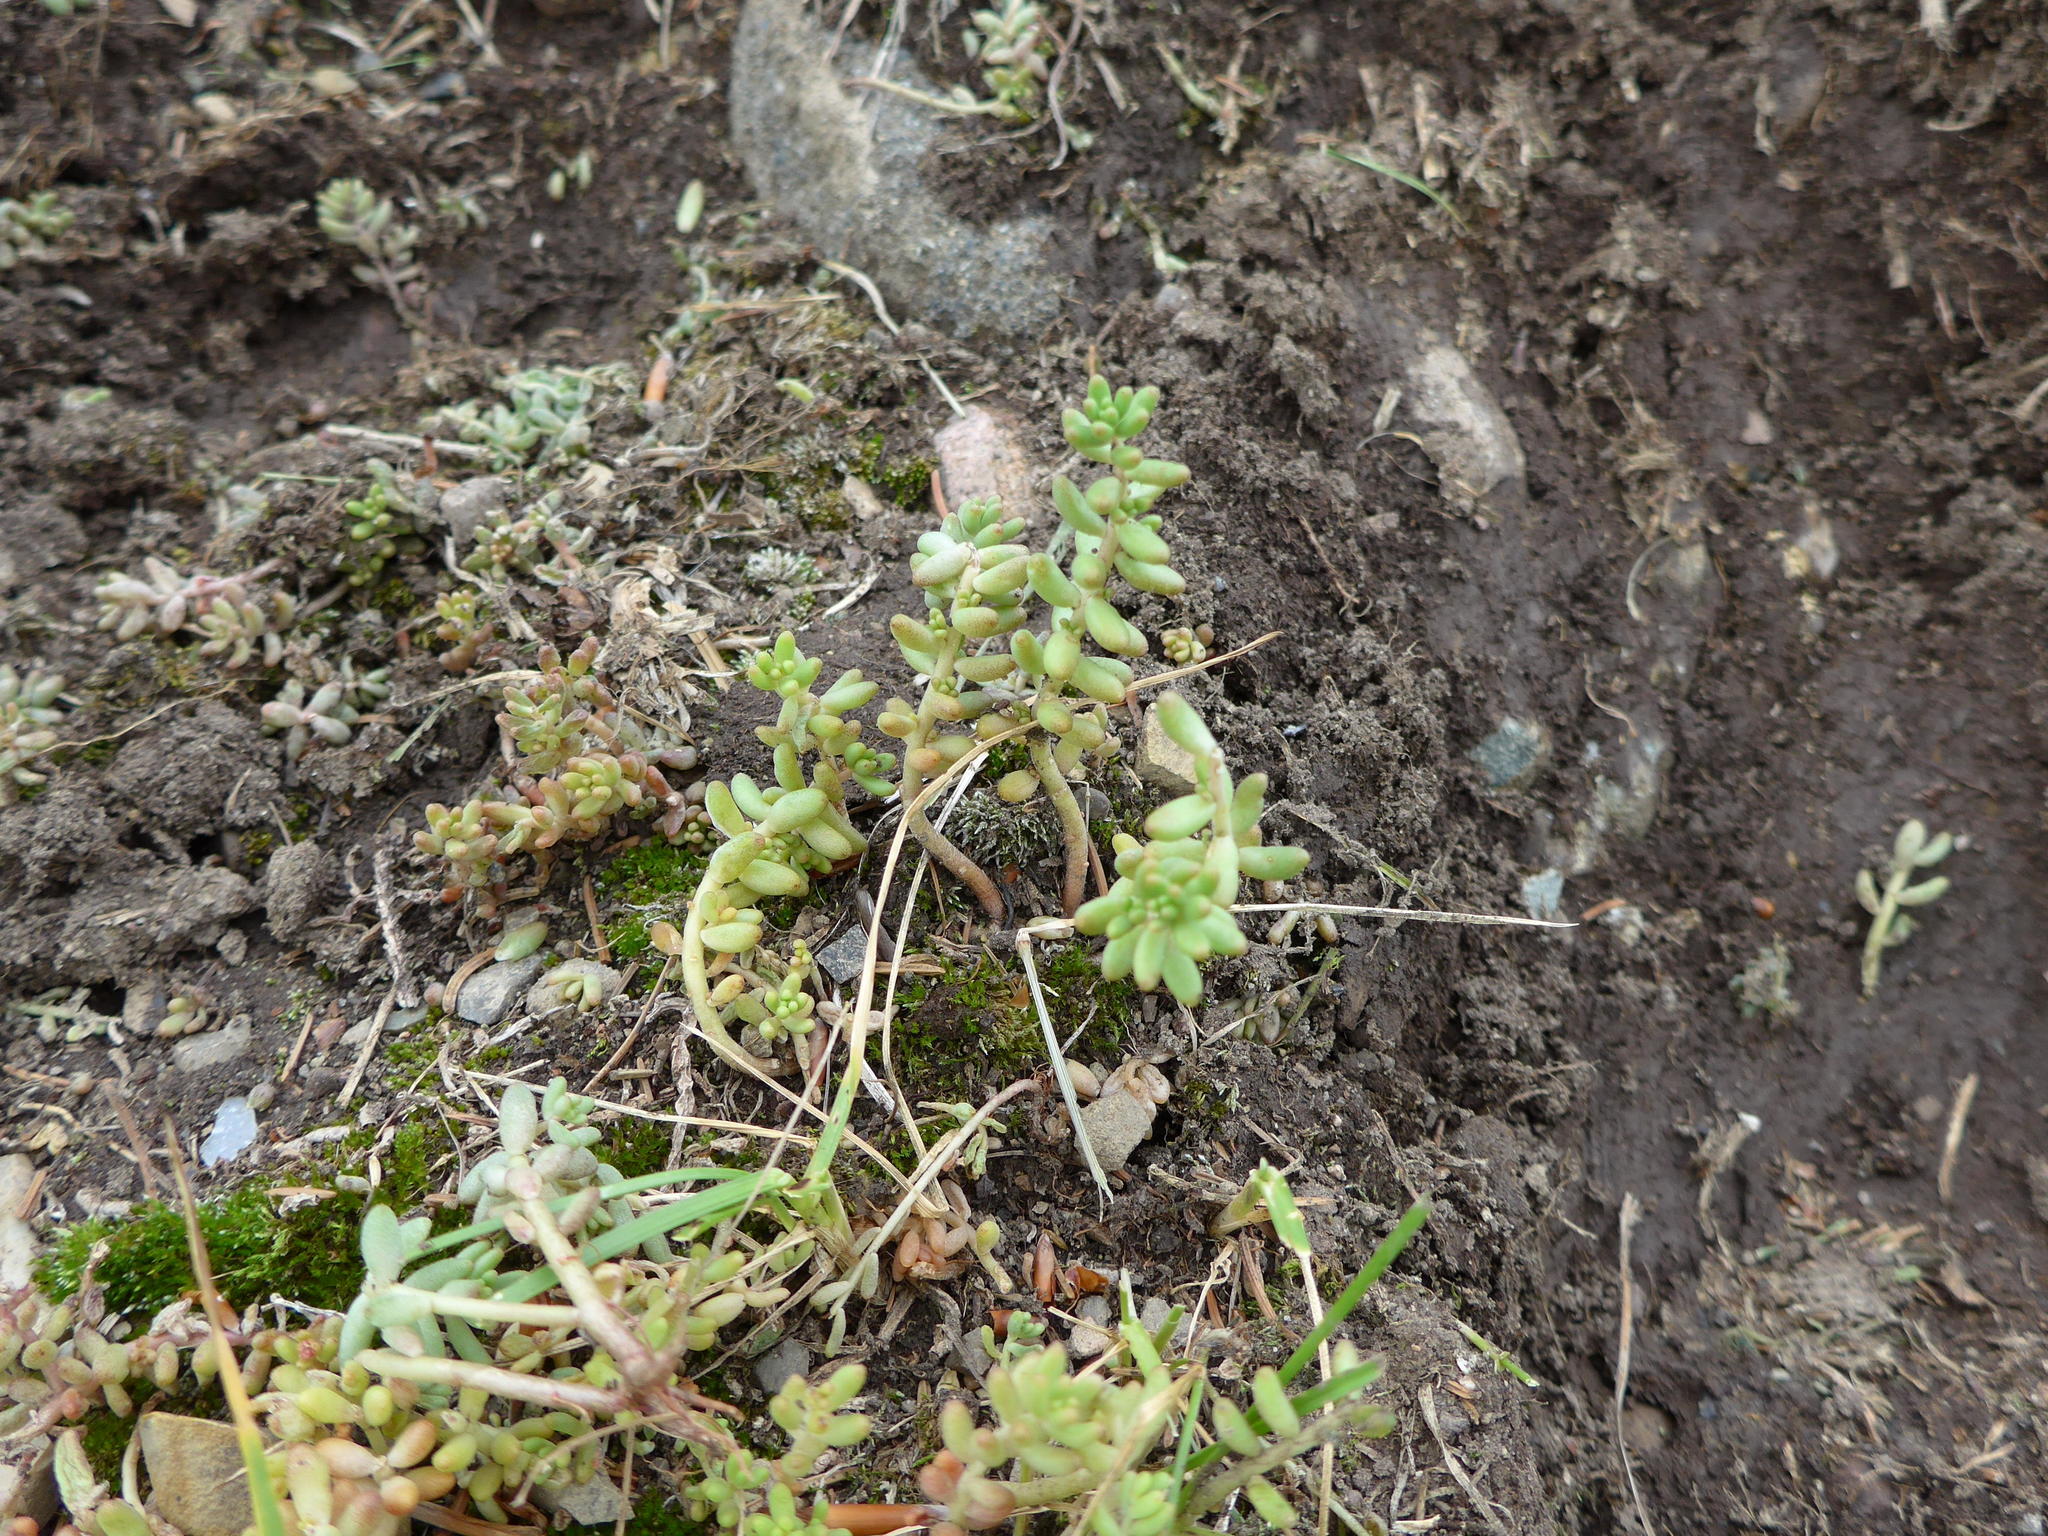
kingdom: Plantae
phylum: Tracheophyta
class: Magnoliopsida
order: Saxifragales
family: Crassulaceae
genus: Sedum
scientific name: Sedum album
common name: White stonecrop
